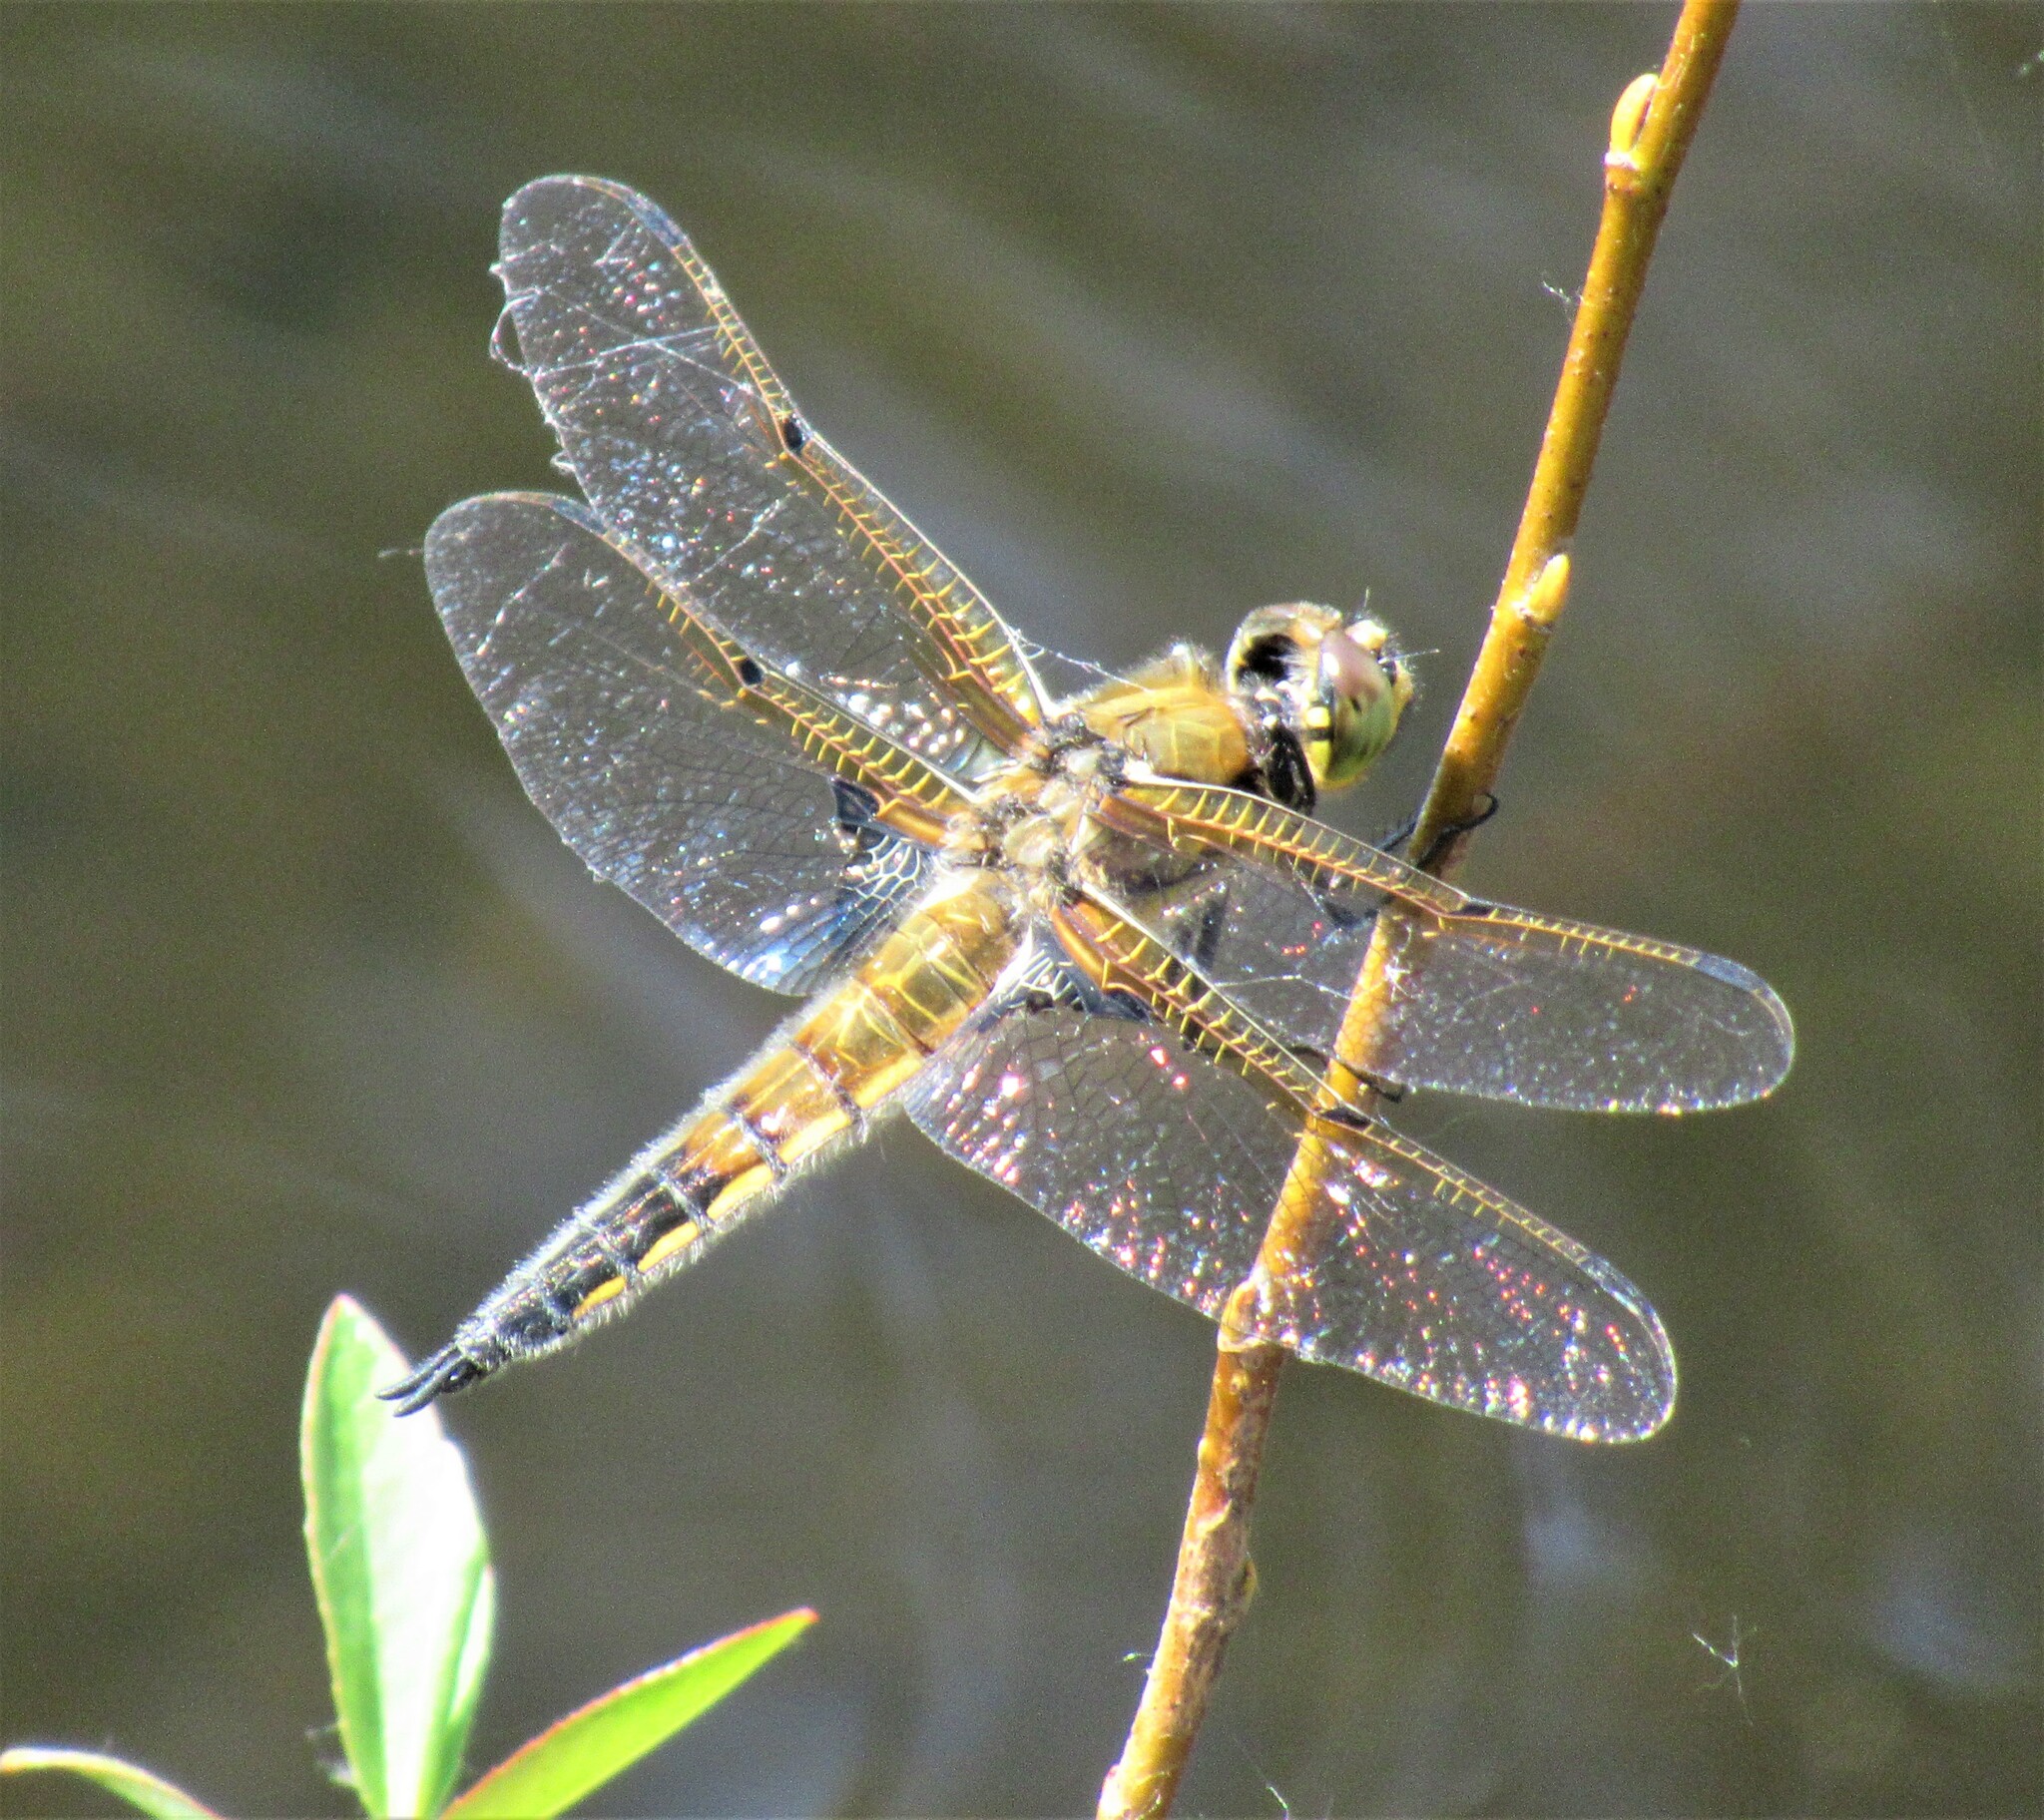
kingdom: Animalia
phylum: Arthropoda
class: Insecta
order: Odonata
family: Libellulidae
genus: Libellula
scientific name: Libellula quadrimaculata
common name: Four-spotted chaser
